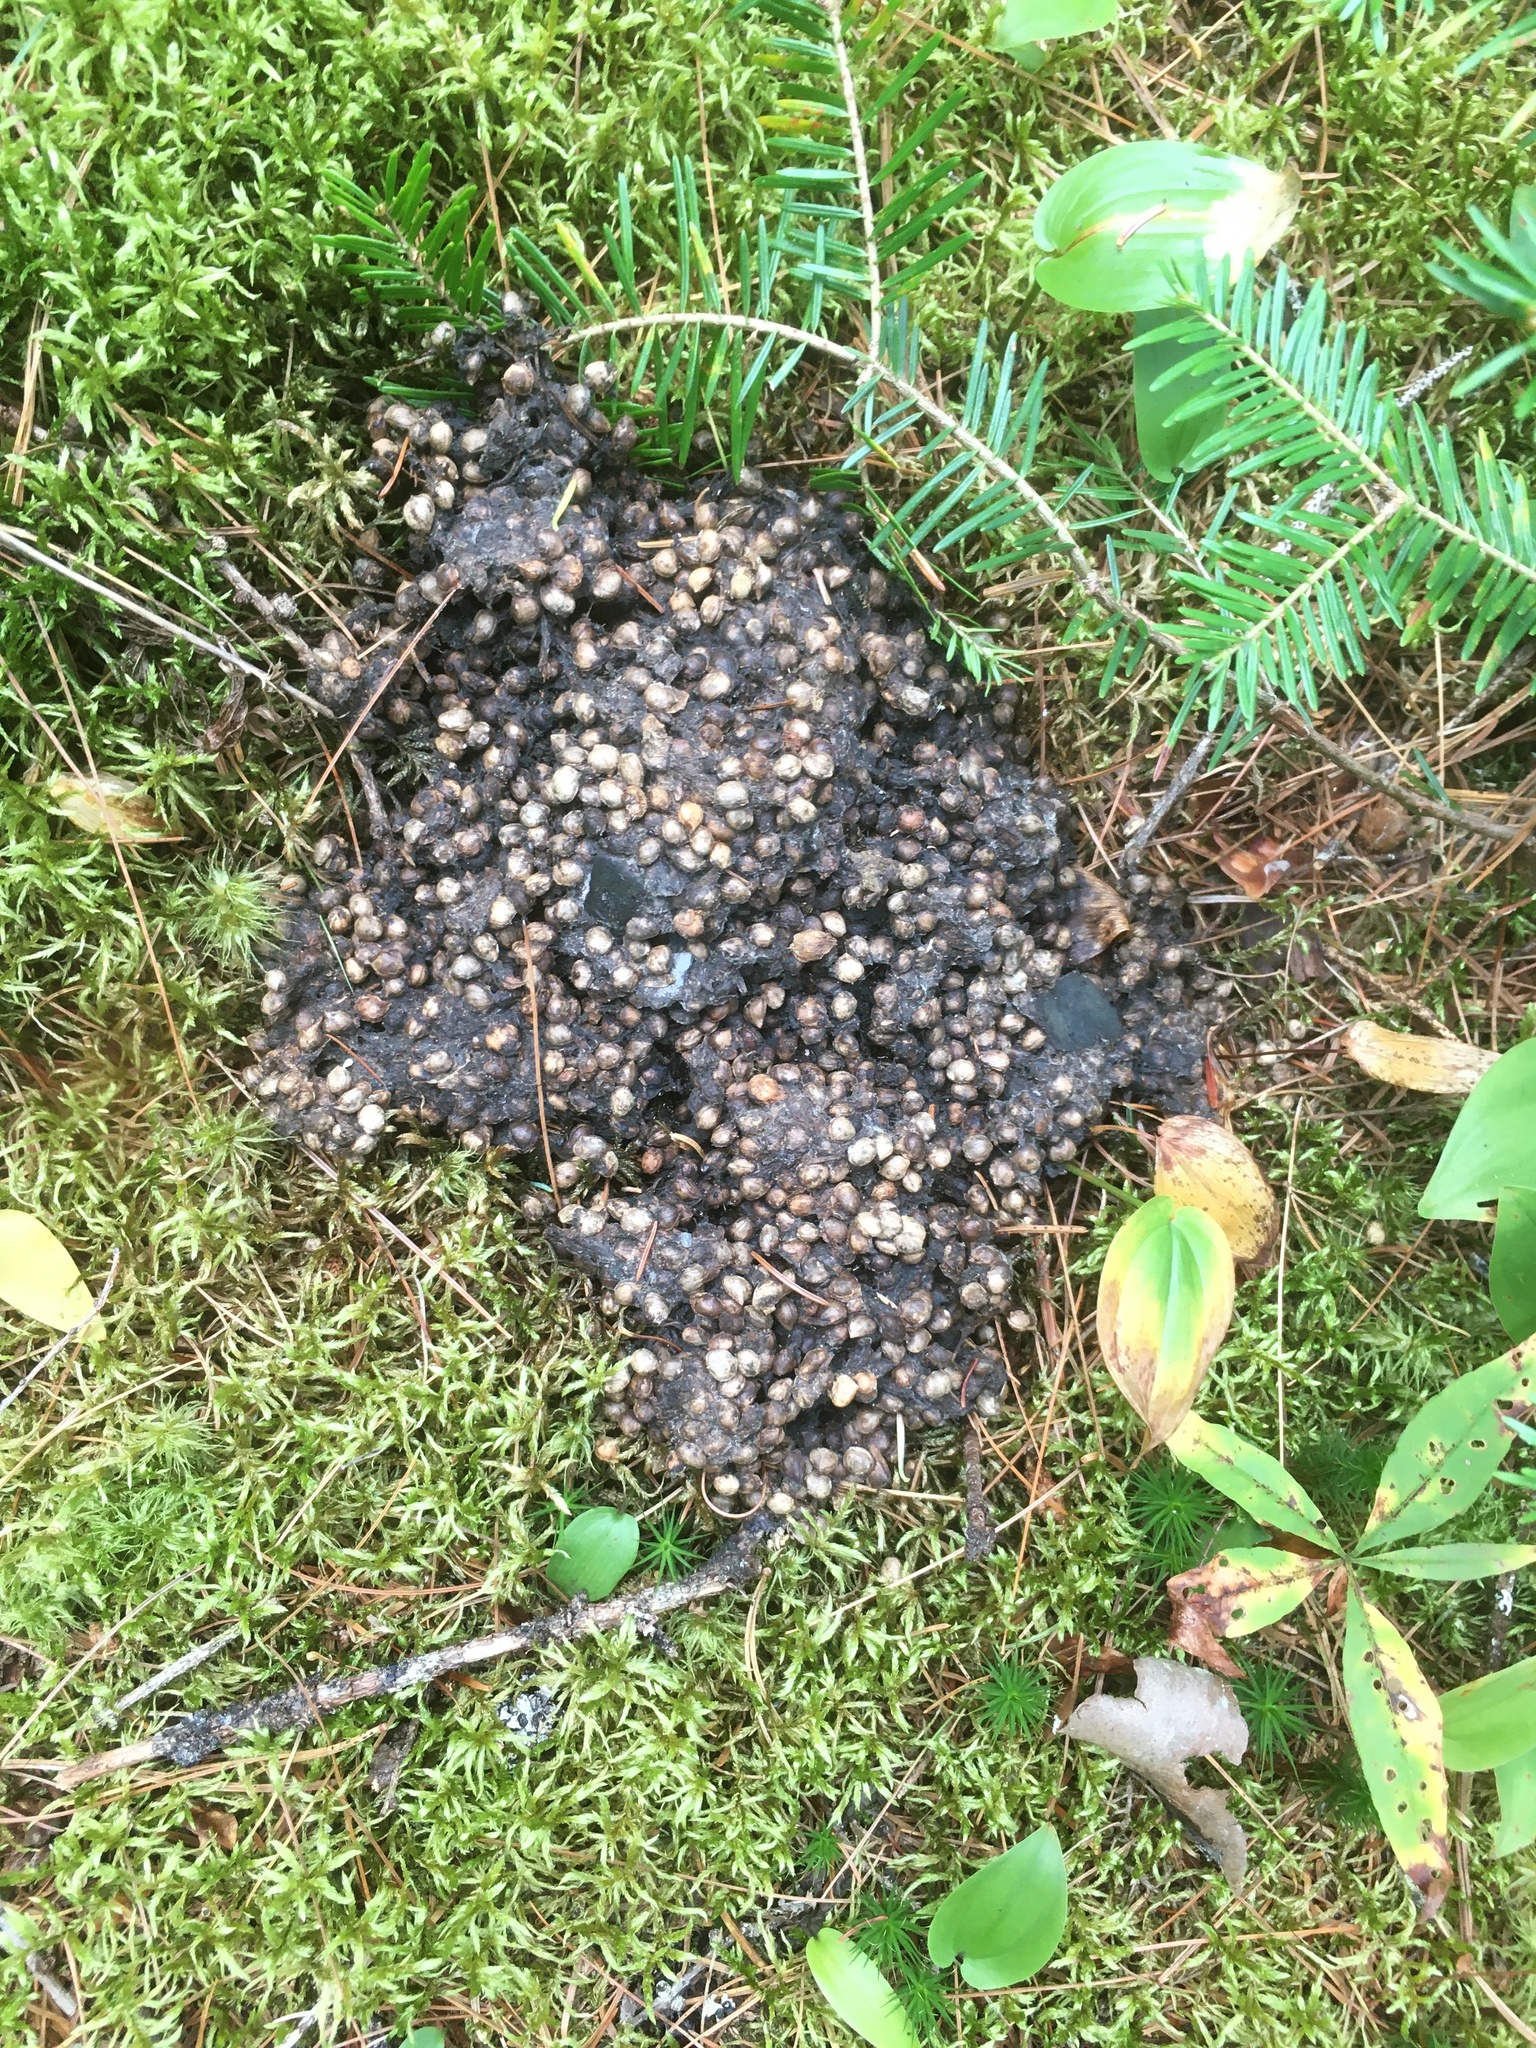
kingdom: Animalia
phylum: Chordata
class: Mammalia
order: Carnivora
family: Ursidae
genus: Ursus
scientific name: Ursus americanus
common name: American black bear
